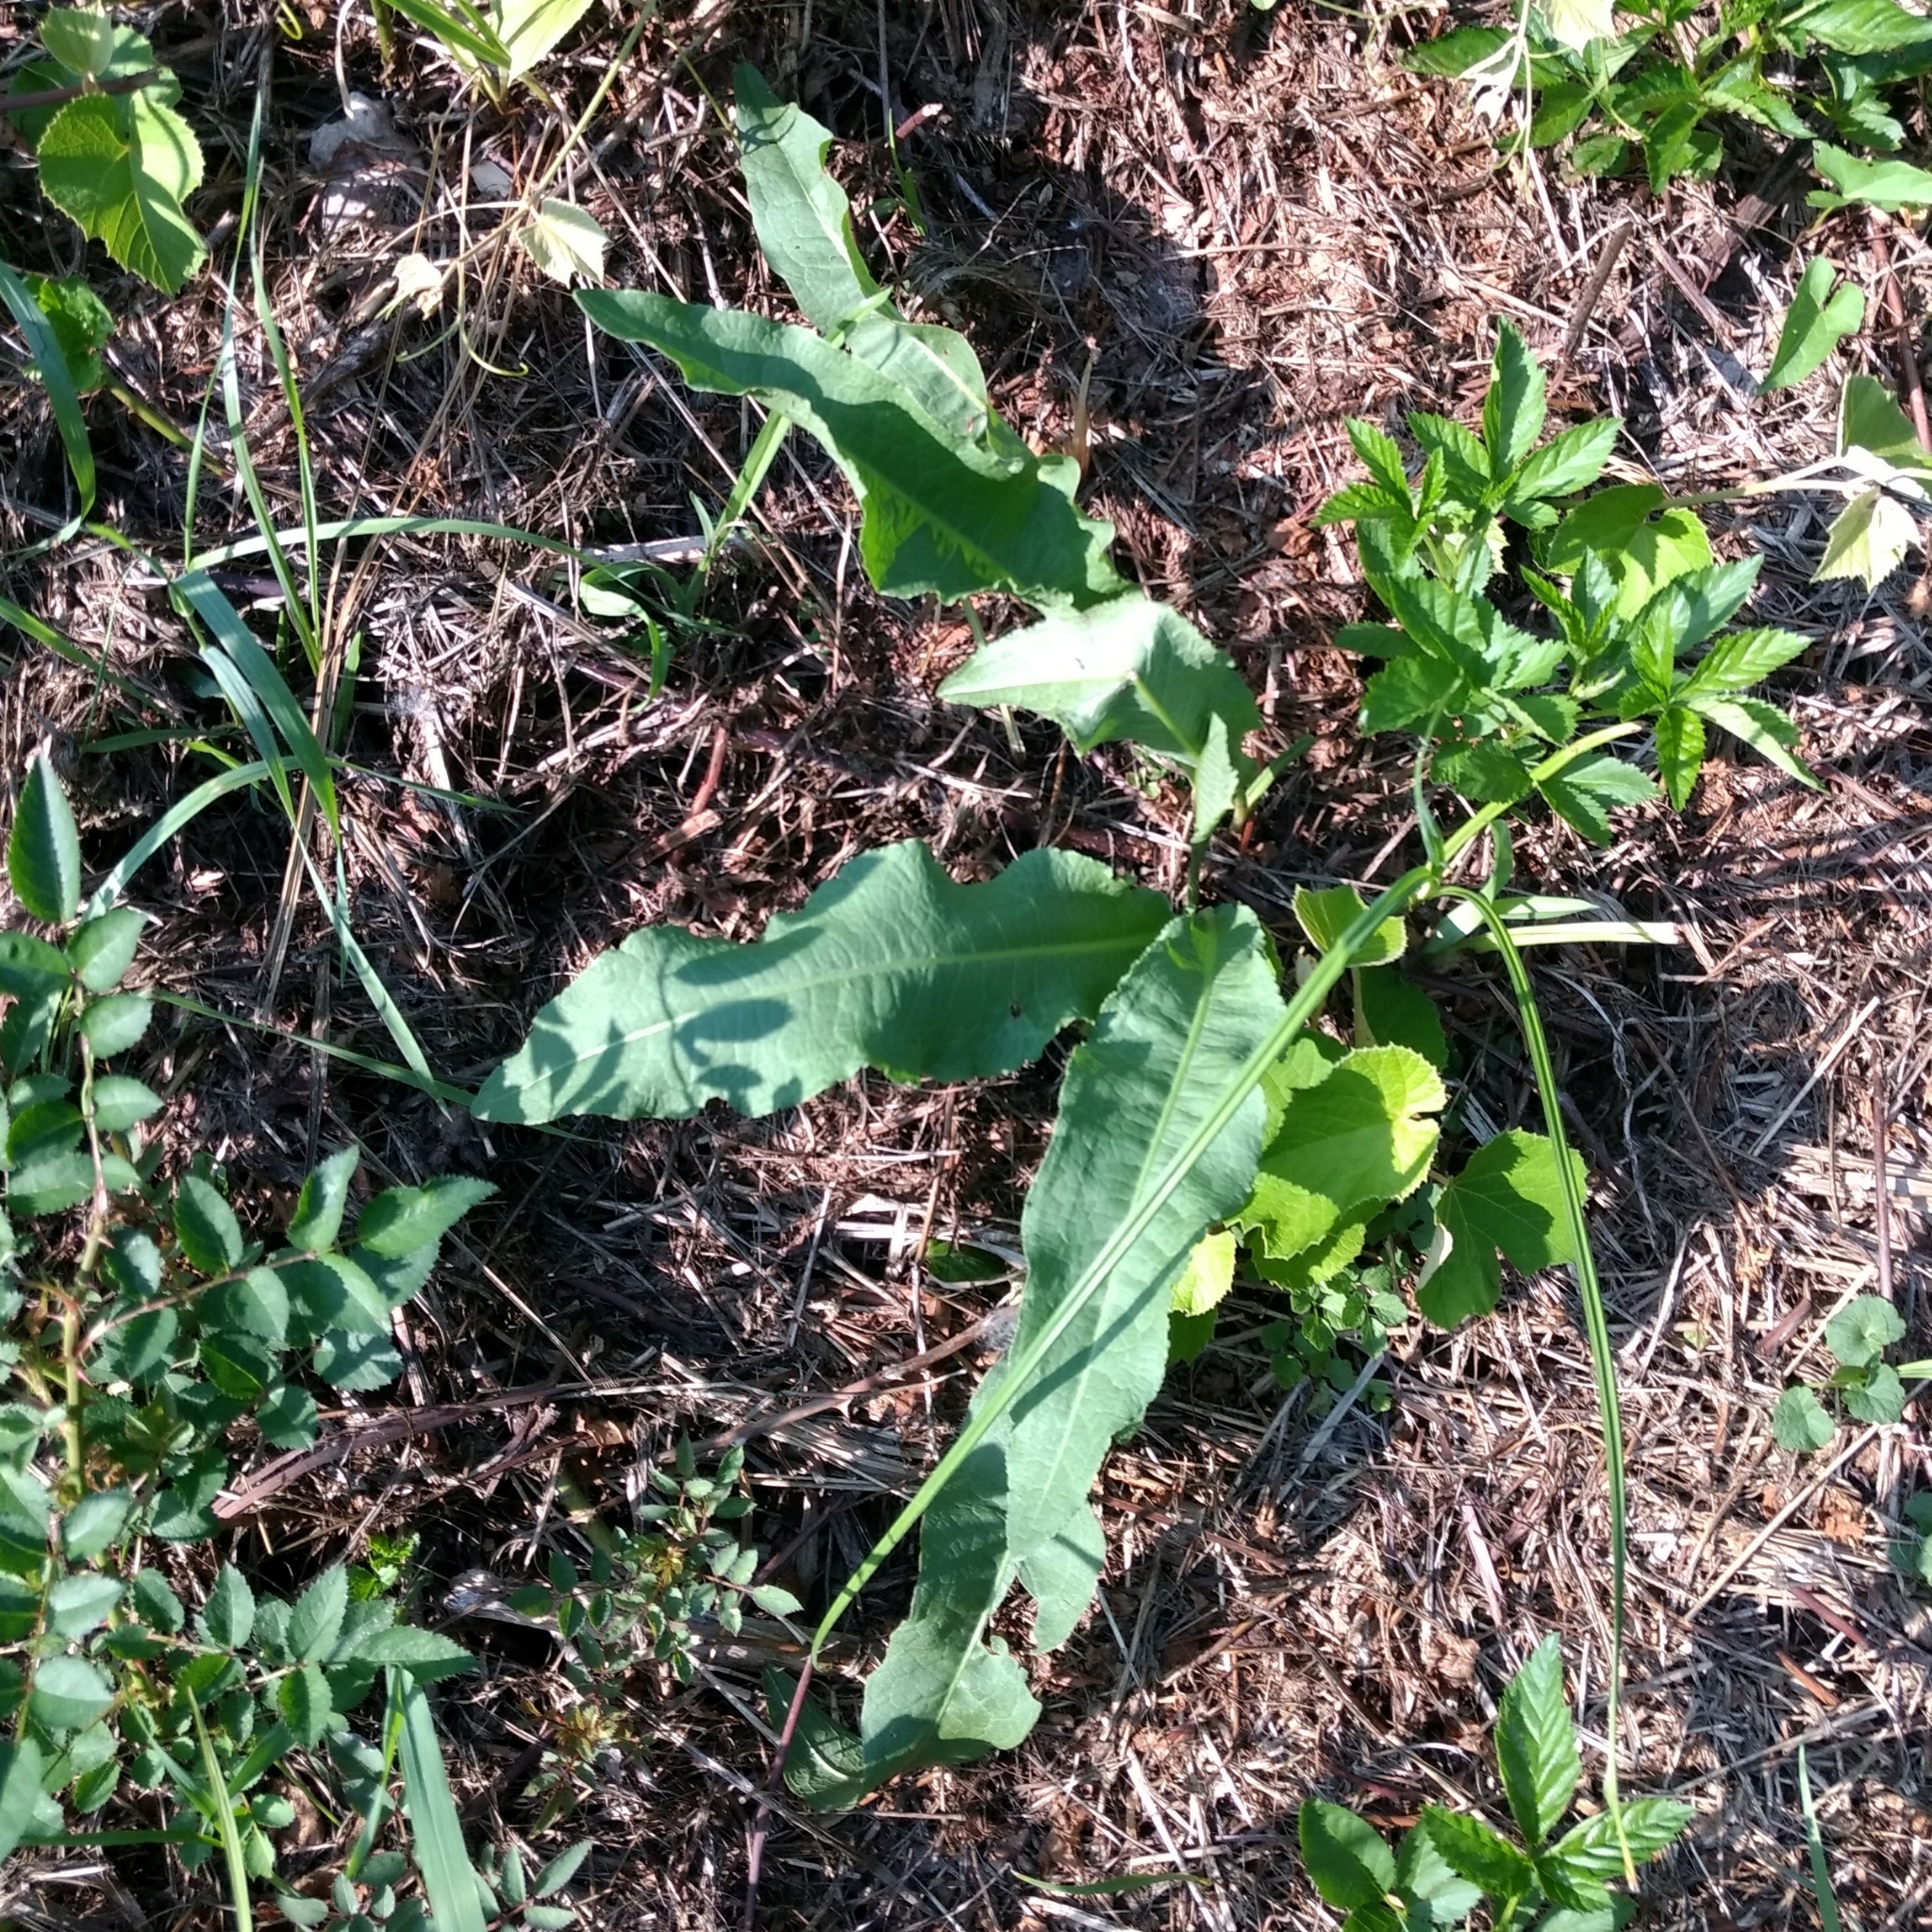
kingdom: Plantae
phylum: Tracheophyta
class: Magnoliopsida
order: Caryophyllales
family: Polygonaceae
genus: Rumex
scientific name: Rumex crispus
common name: Curled dock
